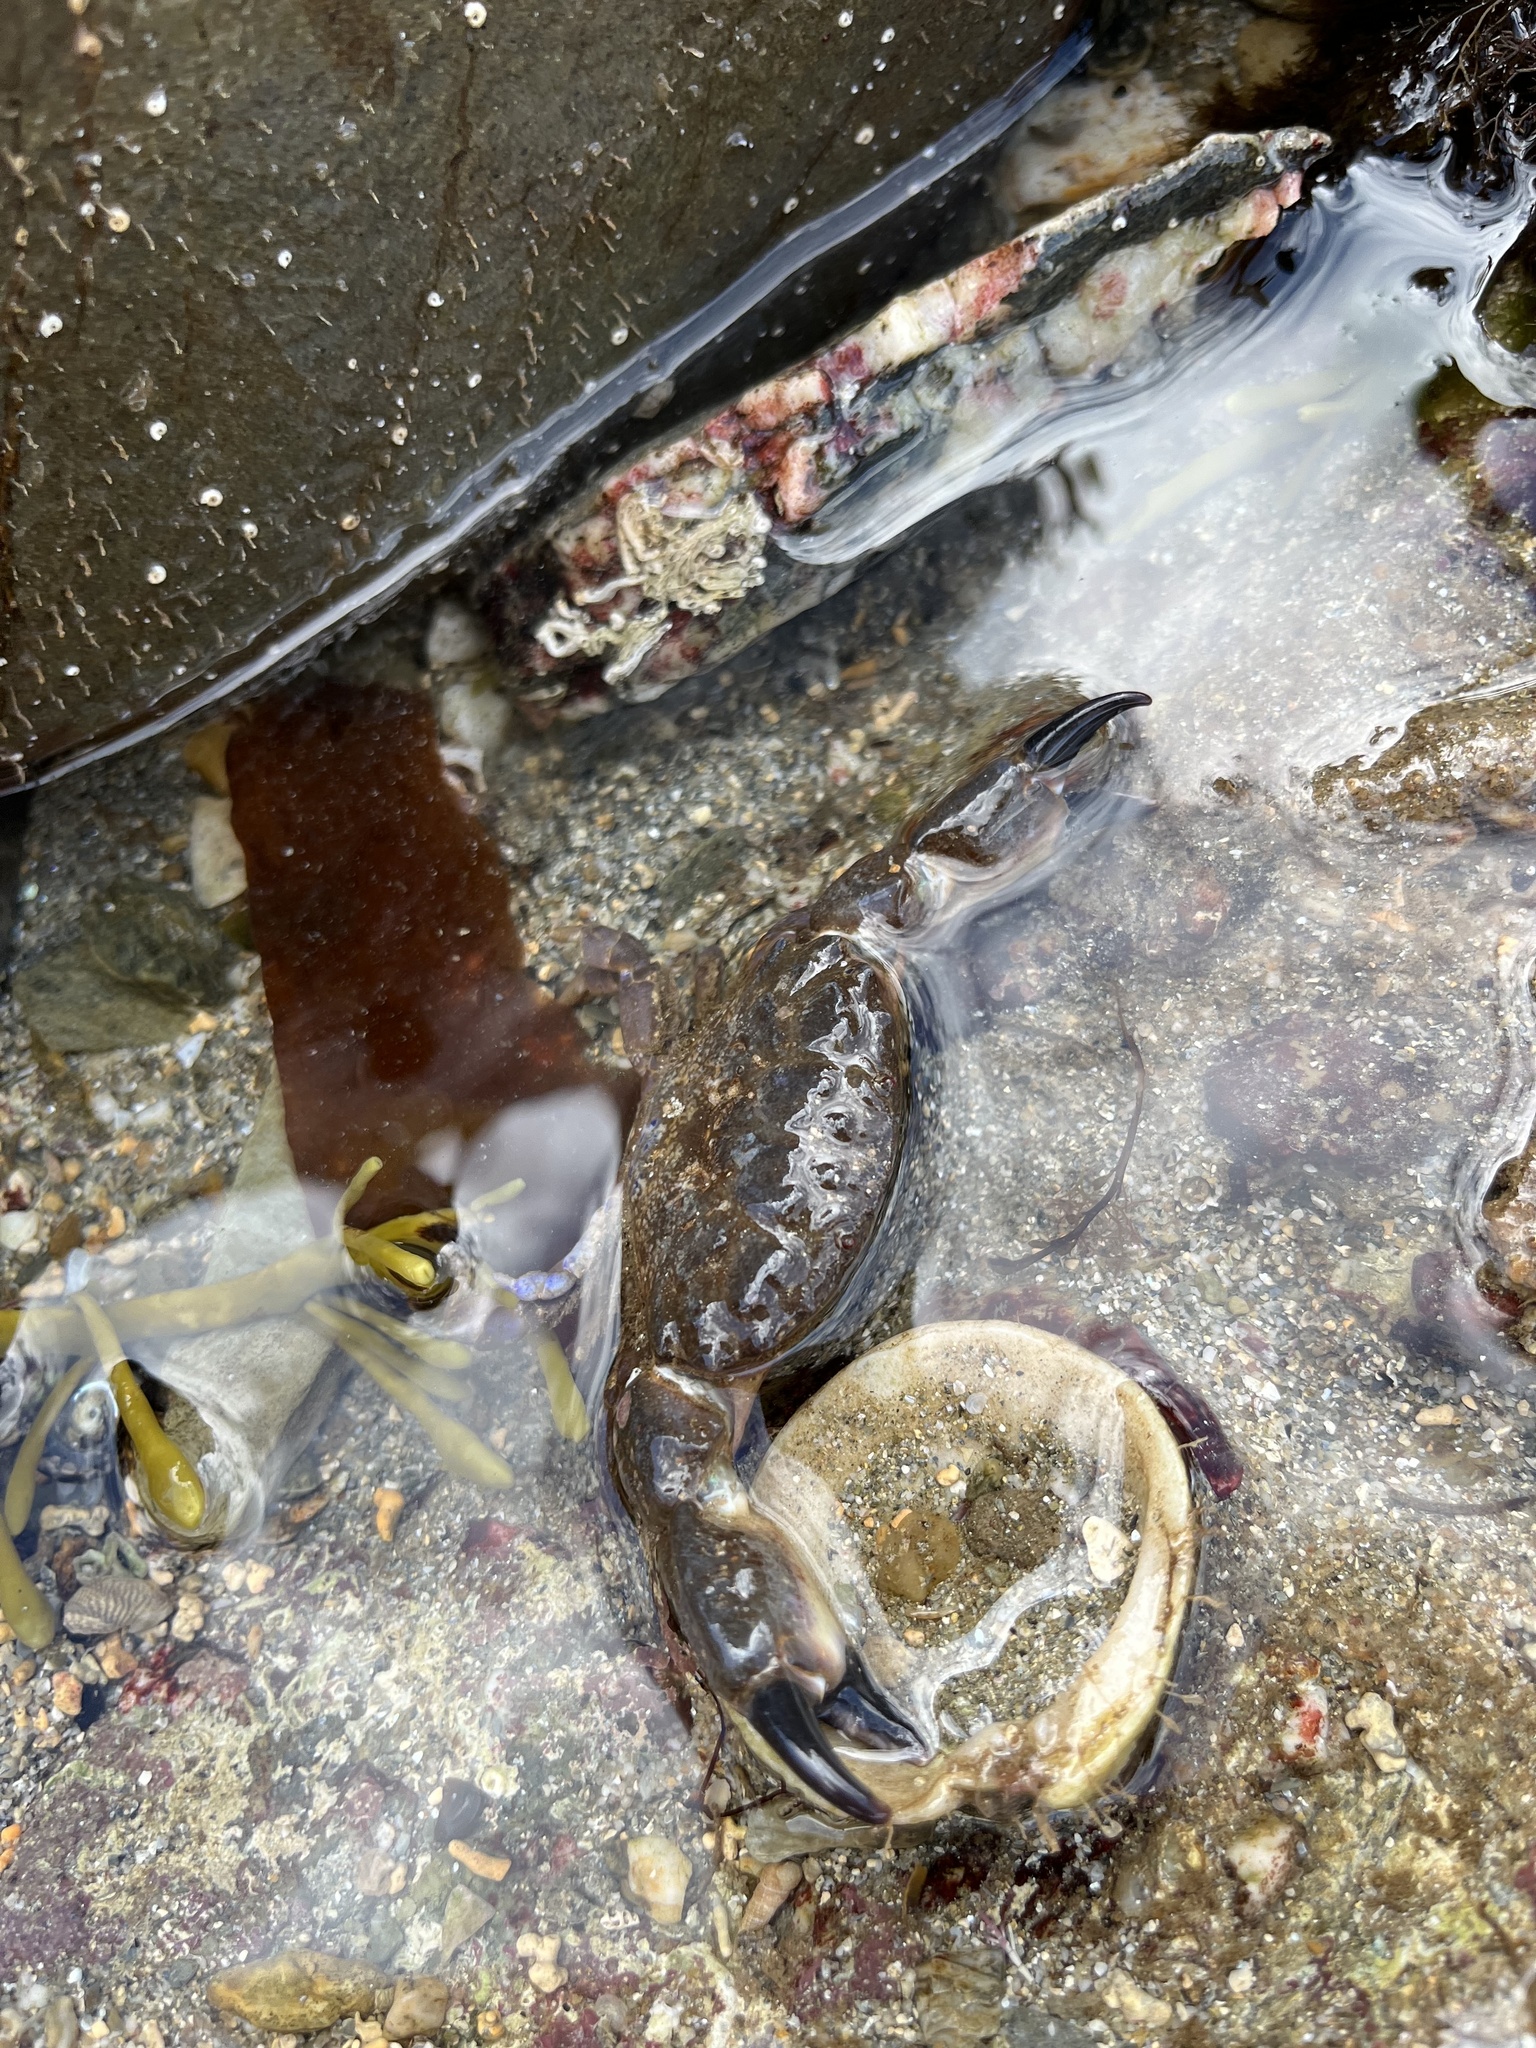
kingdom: Animalia
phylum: Arthropoda
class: Malacostraca
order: Decapoda
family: Xanthidae
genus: Xantho
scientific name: Xantho hydrophilus
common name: Montagu's crab
